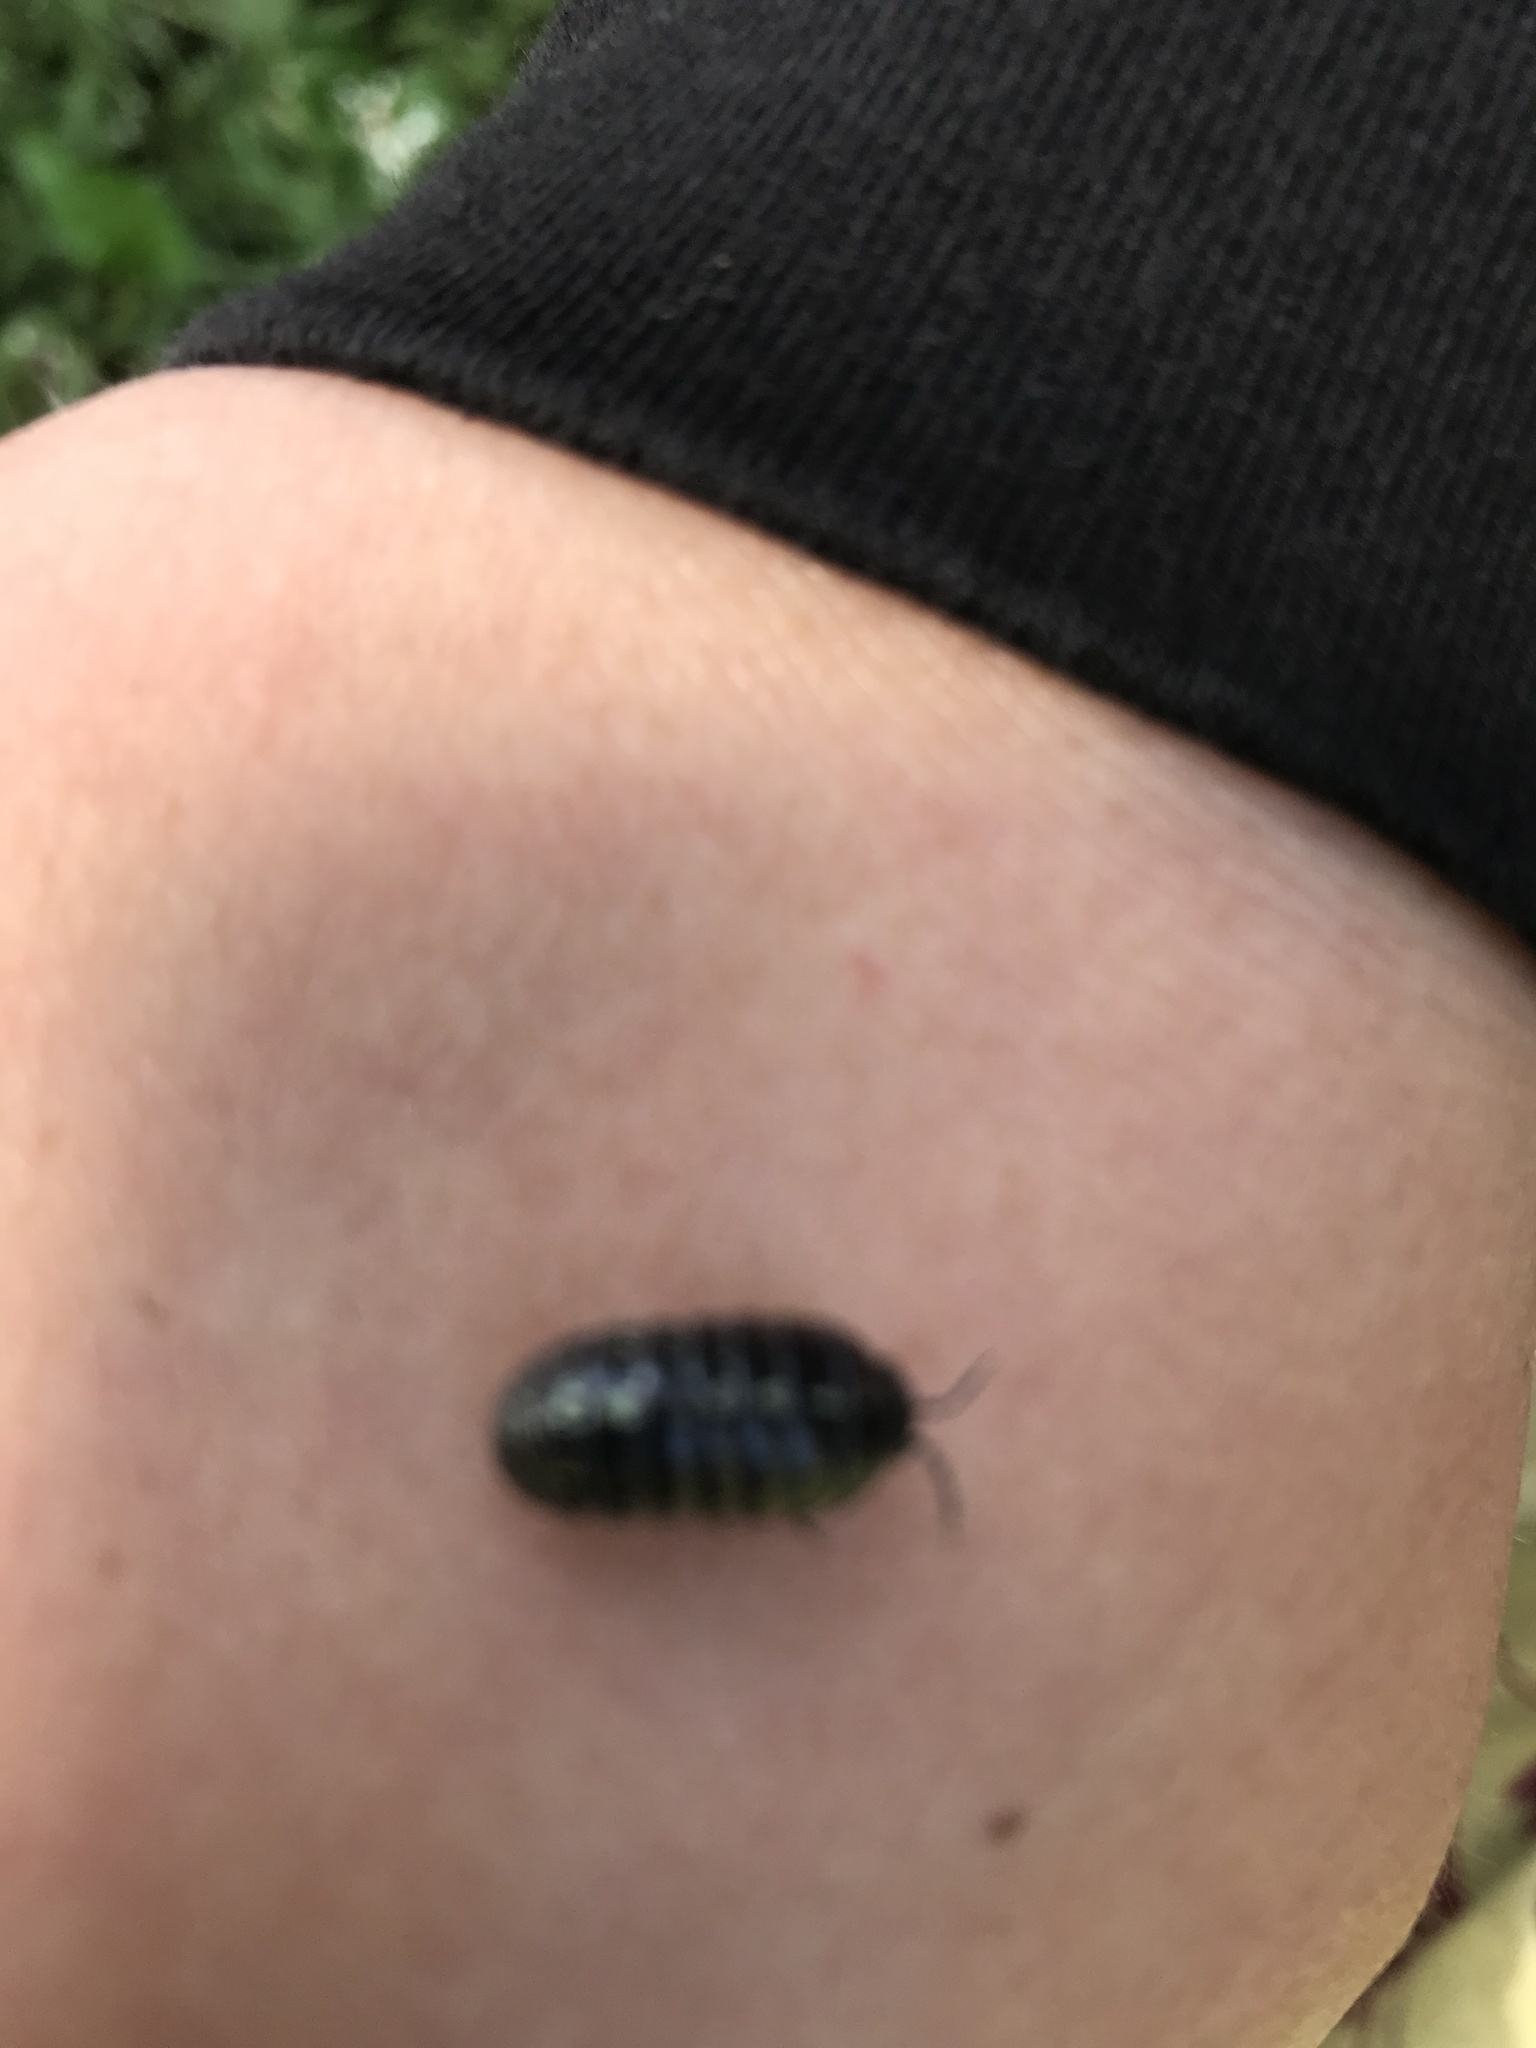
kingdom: Animalia
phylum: Arthropoda
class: Malacostraca
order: Isopoda
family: Armadillidiidae
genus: Armadillidium
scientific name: Armadillidium vulgare
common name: Common pill woodlouse
